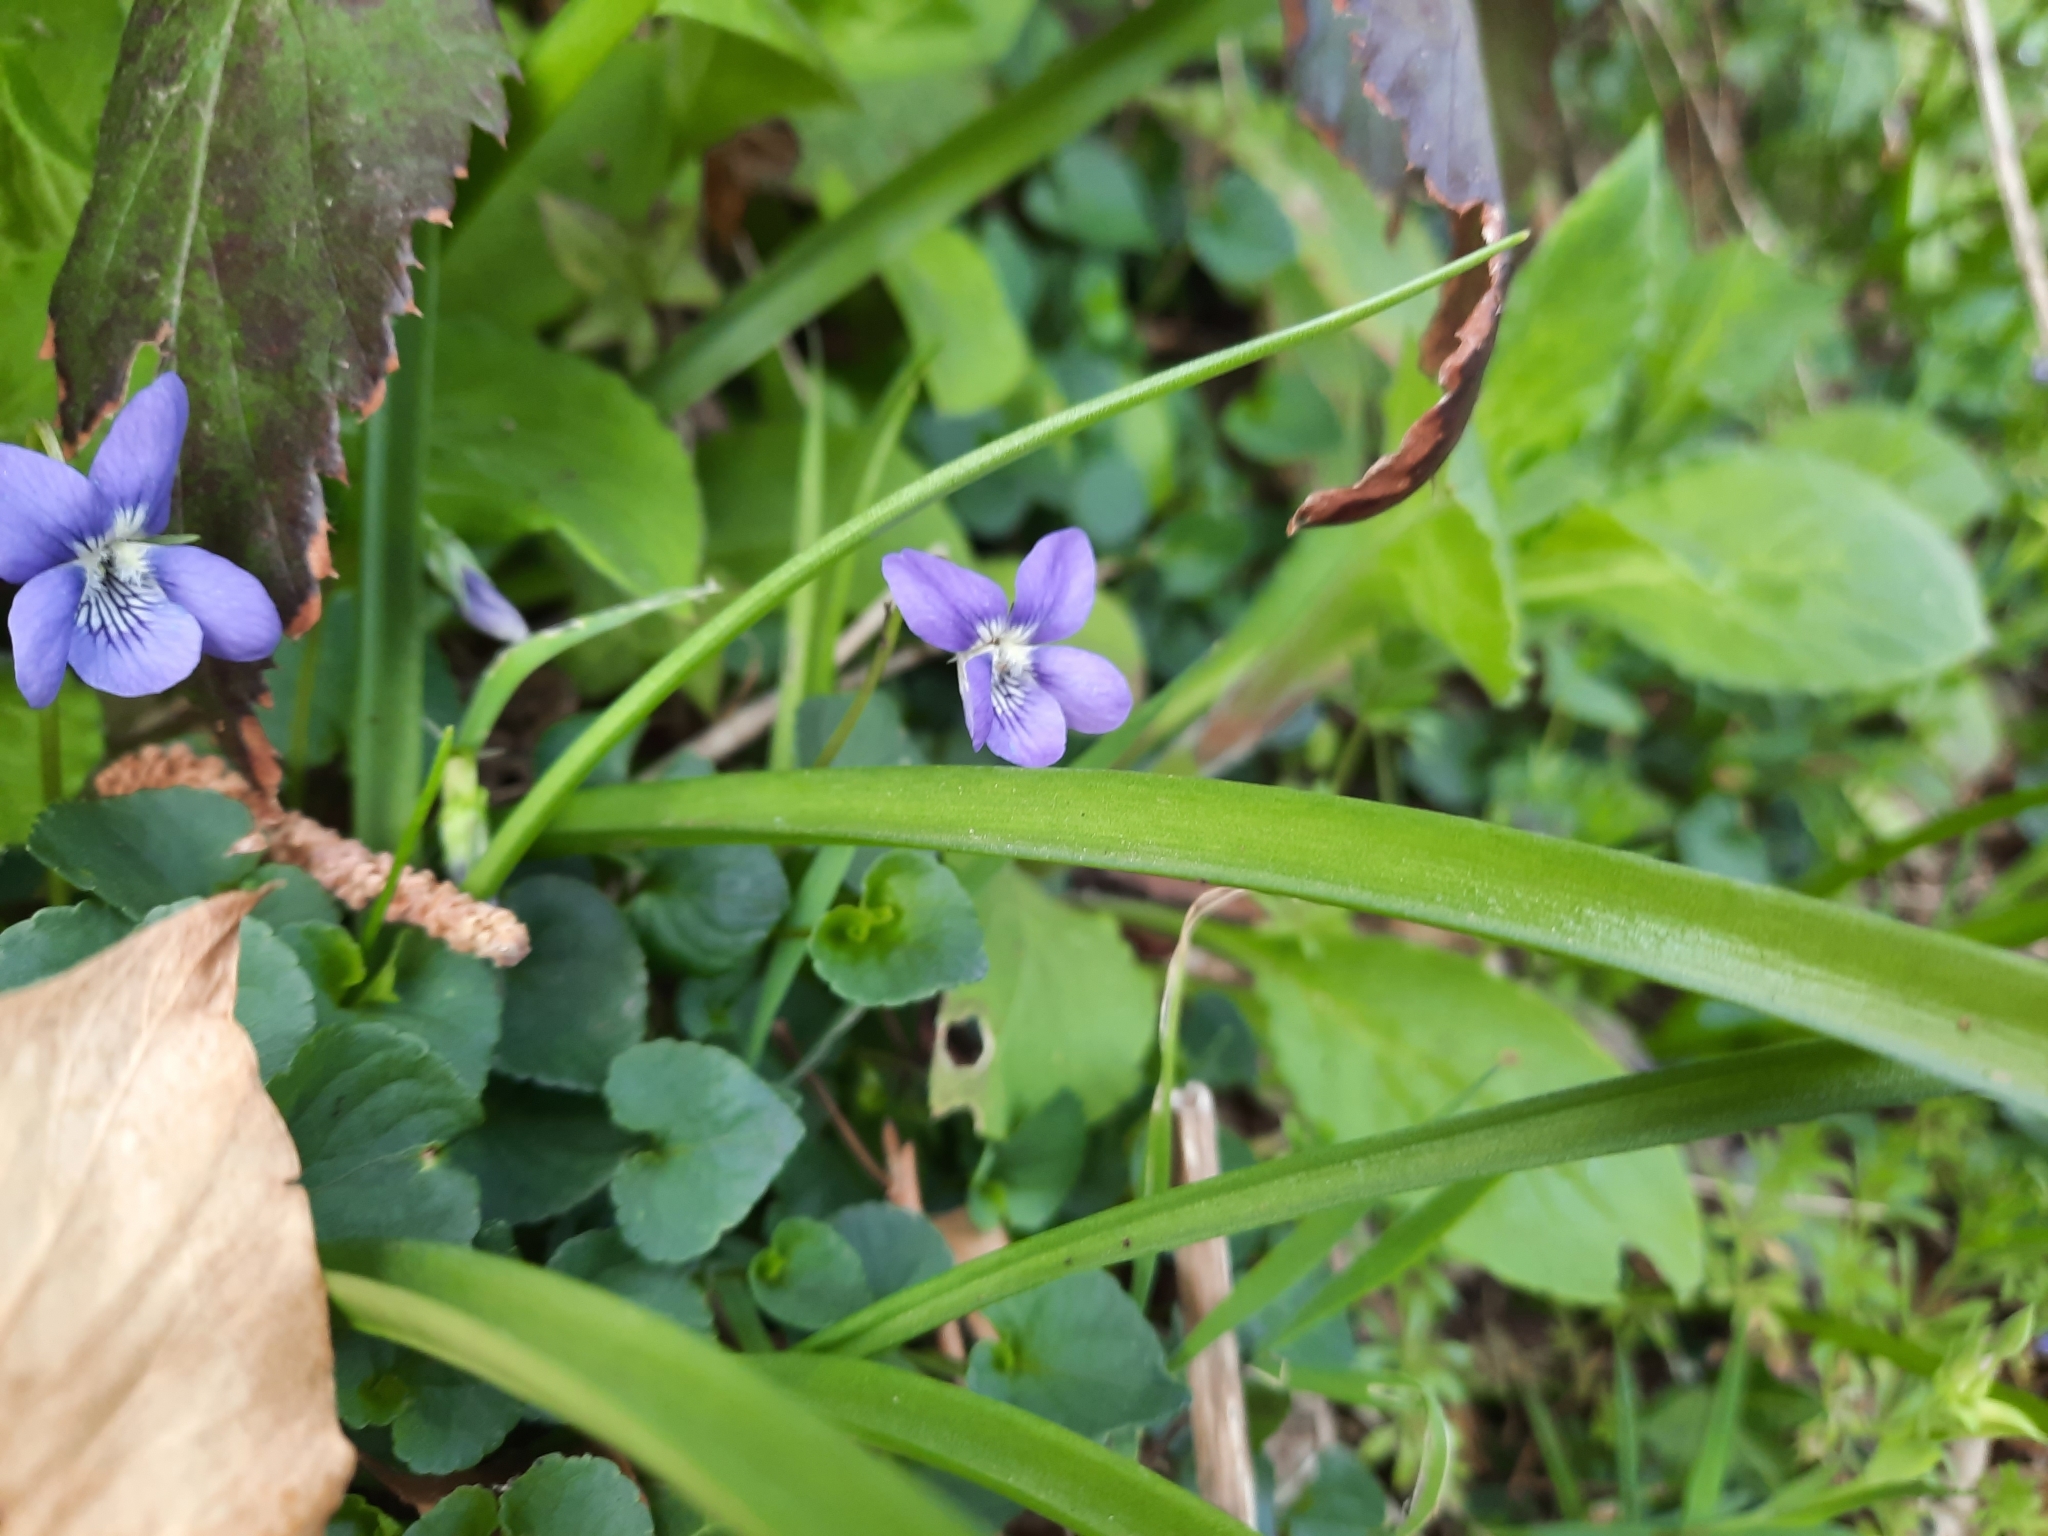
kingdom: Plantae
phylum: Tracheophyta
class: Magnoliopsida
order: Malpighiales
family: Violaceae
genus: Viola
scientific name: Viola riviniana
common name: Common dog-violet
